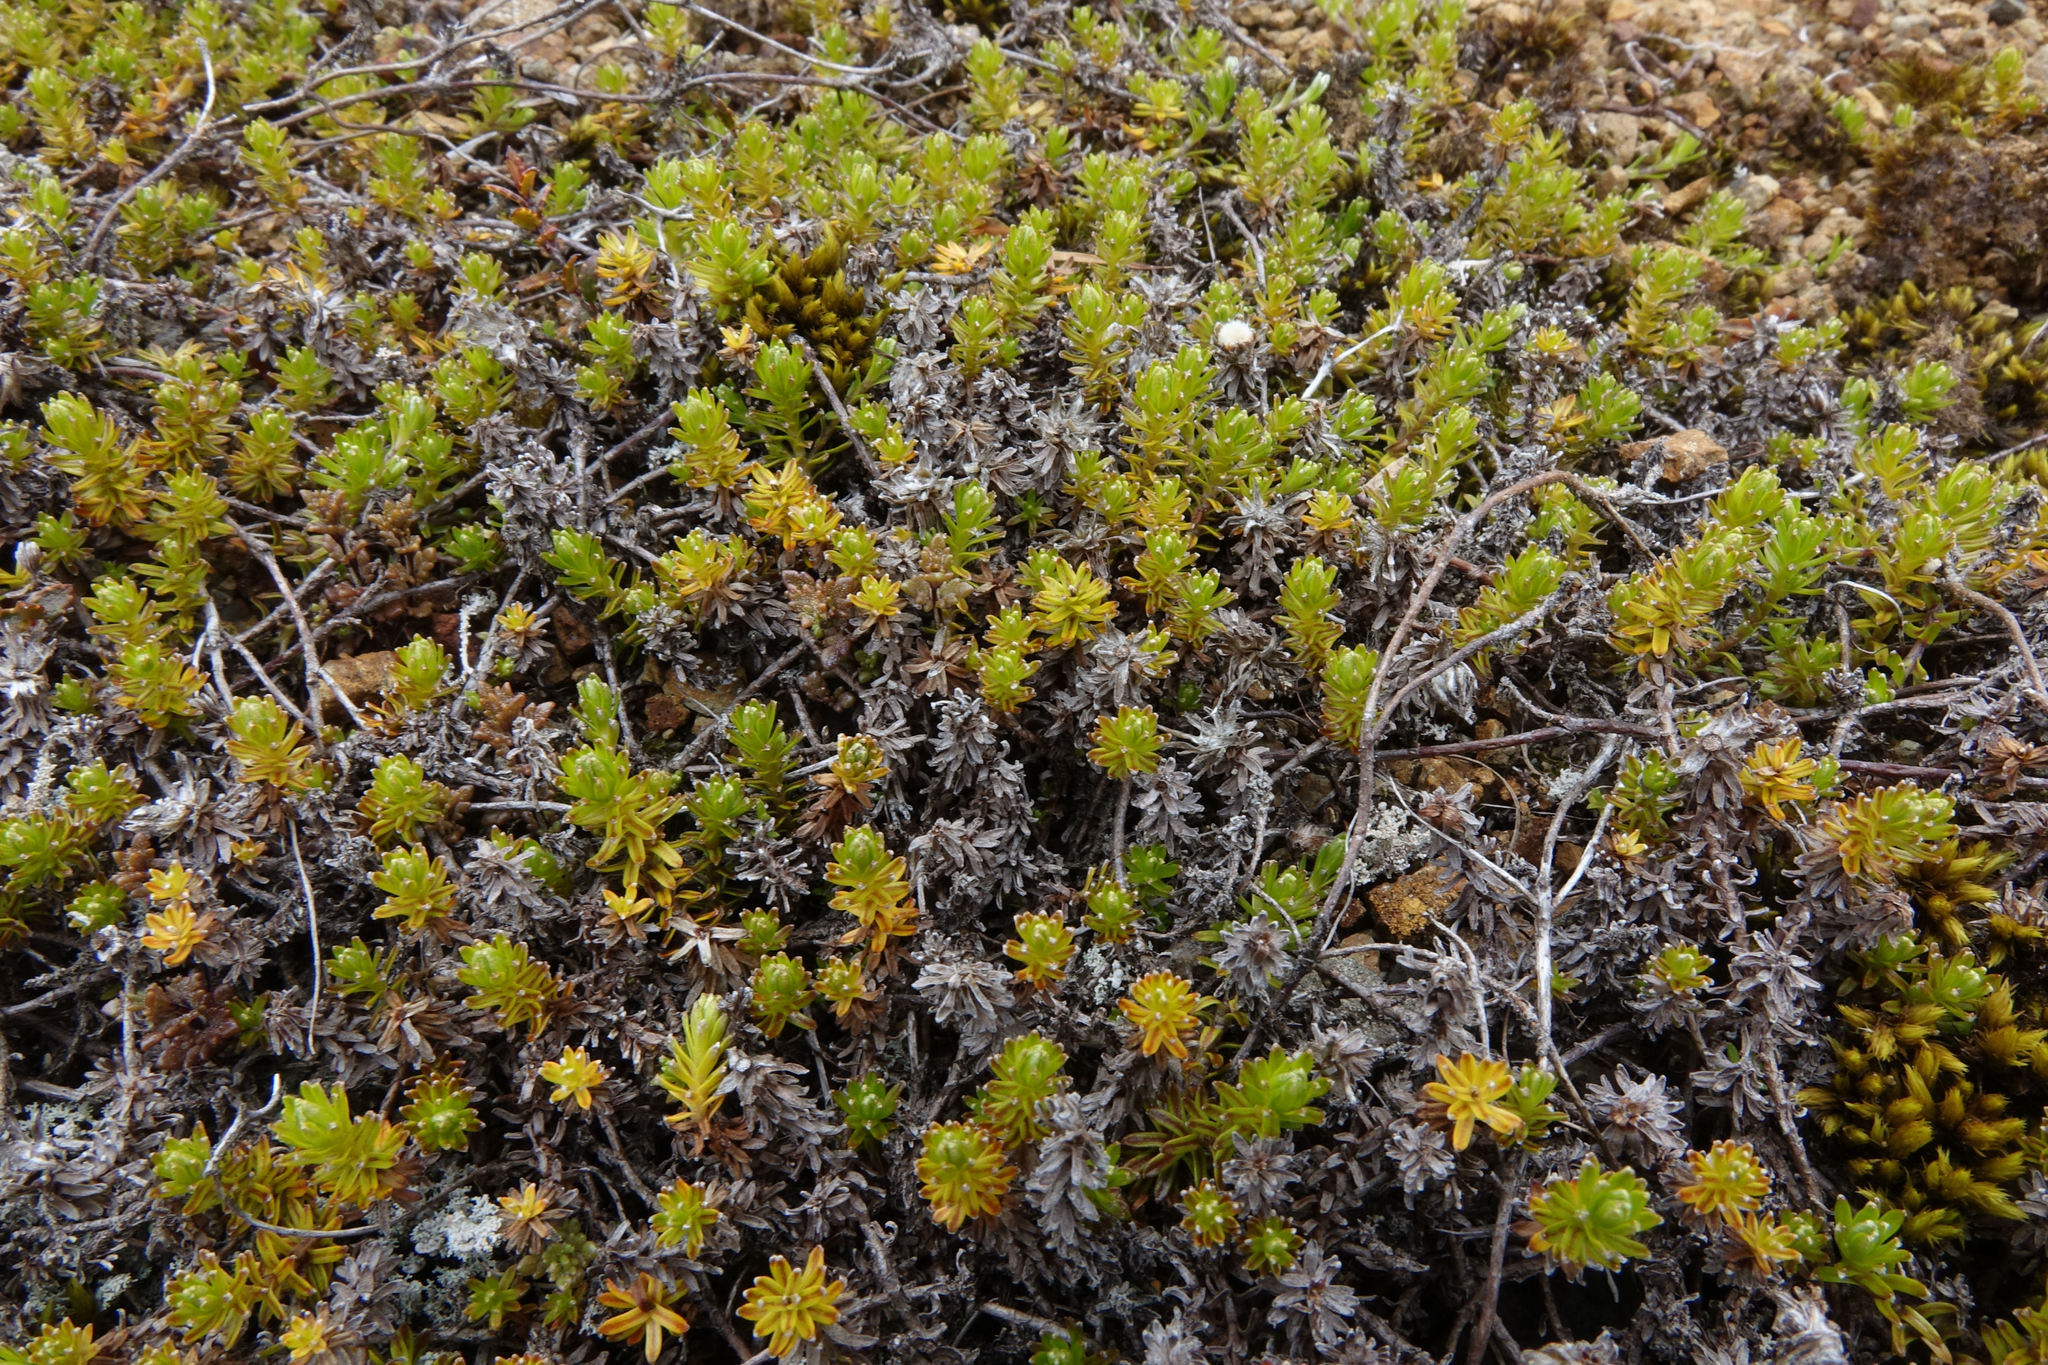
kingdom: Plantae
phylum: Tracheophyta
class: Magnoliopsida
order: Asterales
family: Asteraceae
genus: Raoulia
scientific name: Raoulia glabra
